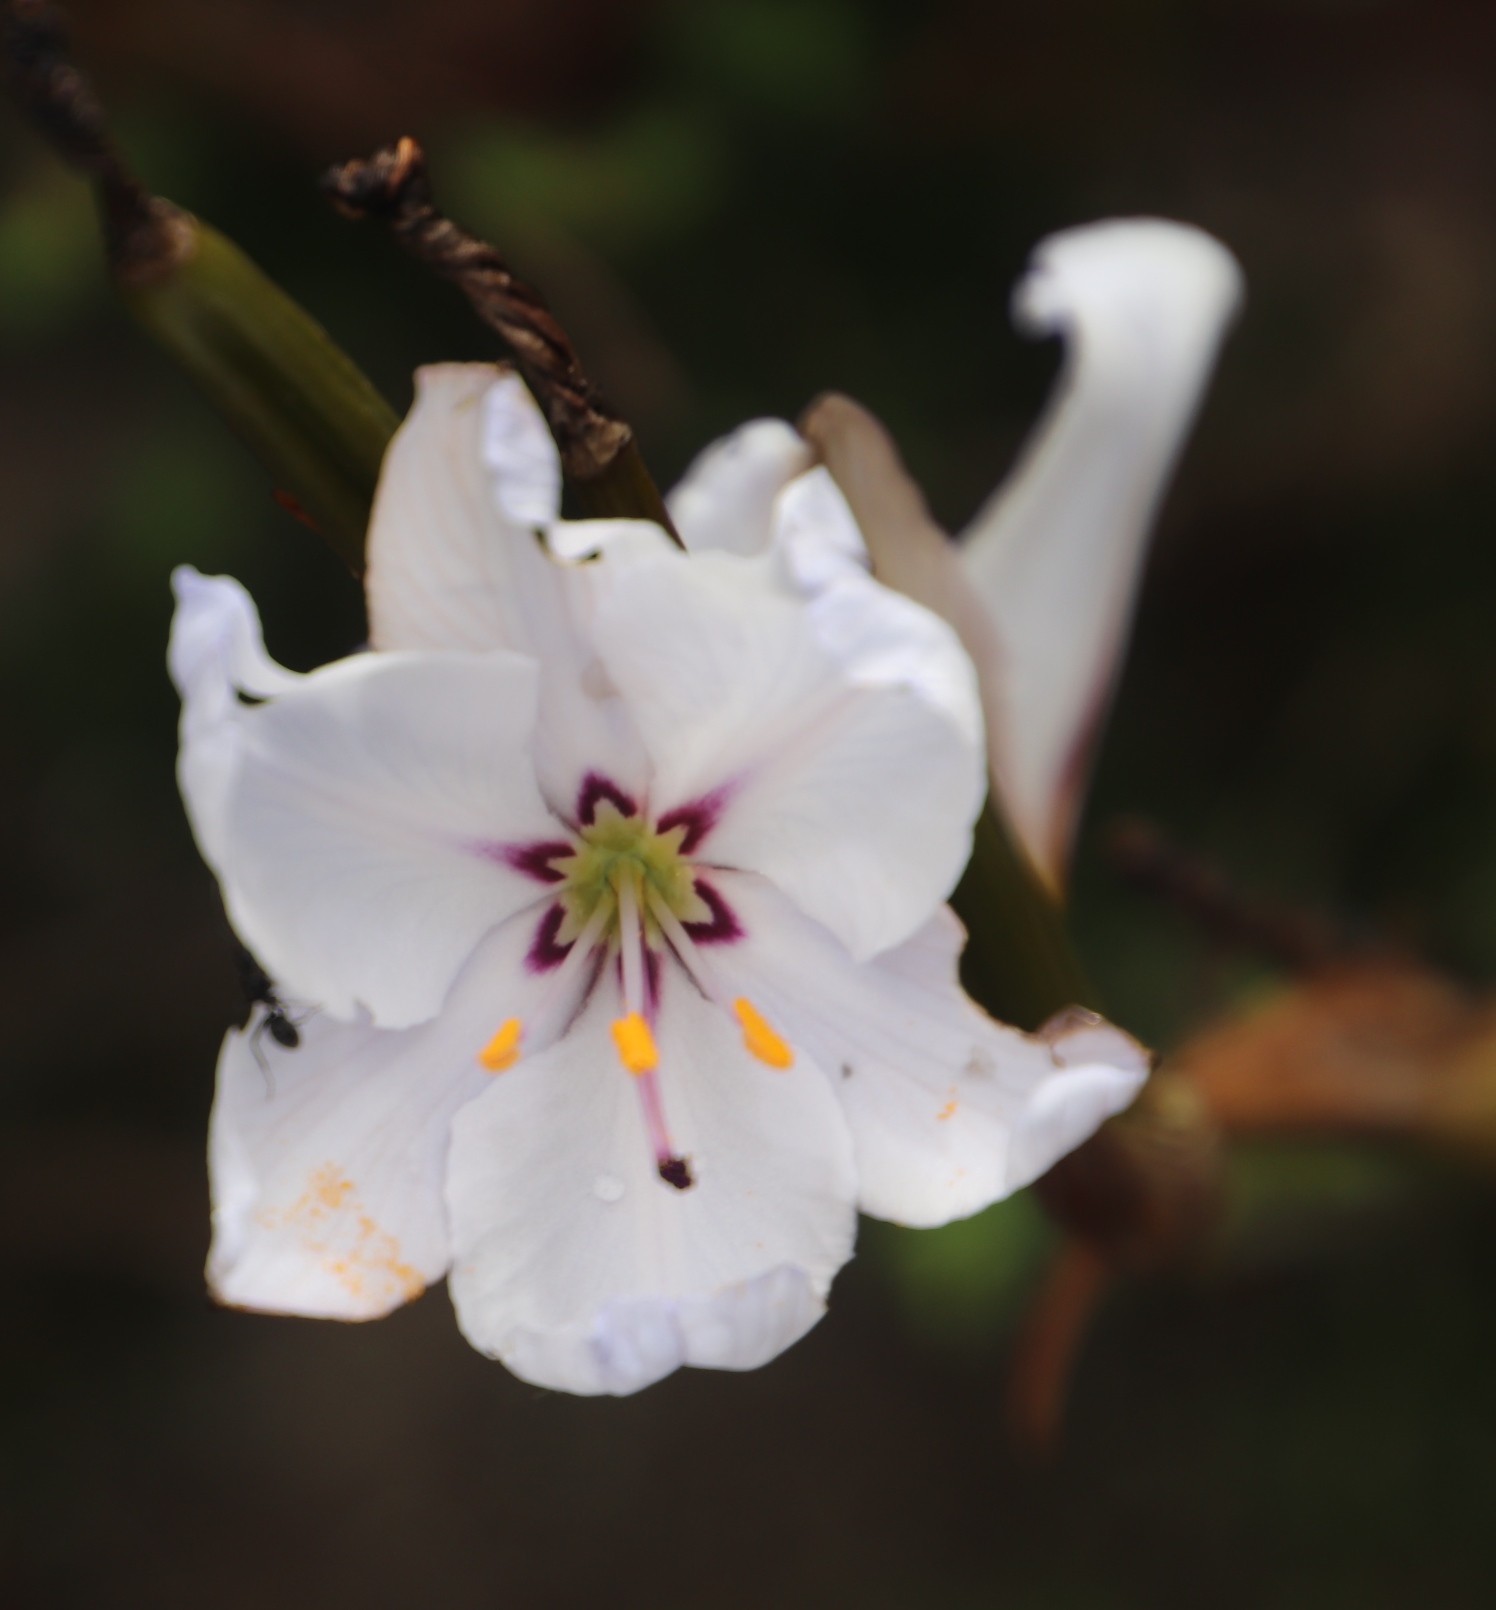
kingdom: Plantae
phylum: Tracheophyta
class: Liliopsida
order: Asparagales
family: Iridaceae
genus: Aristea
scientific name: Aristea spiralis
